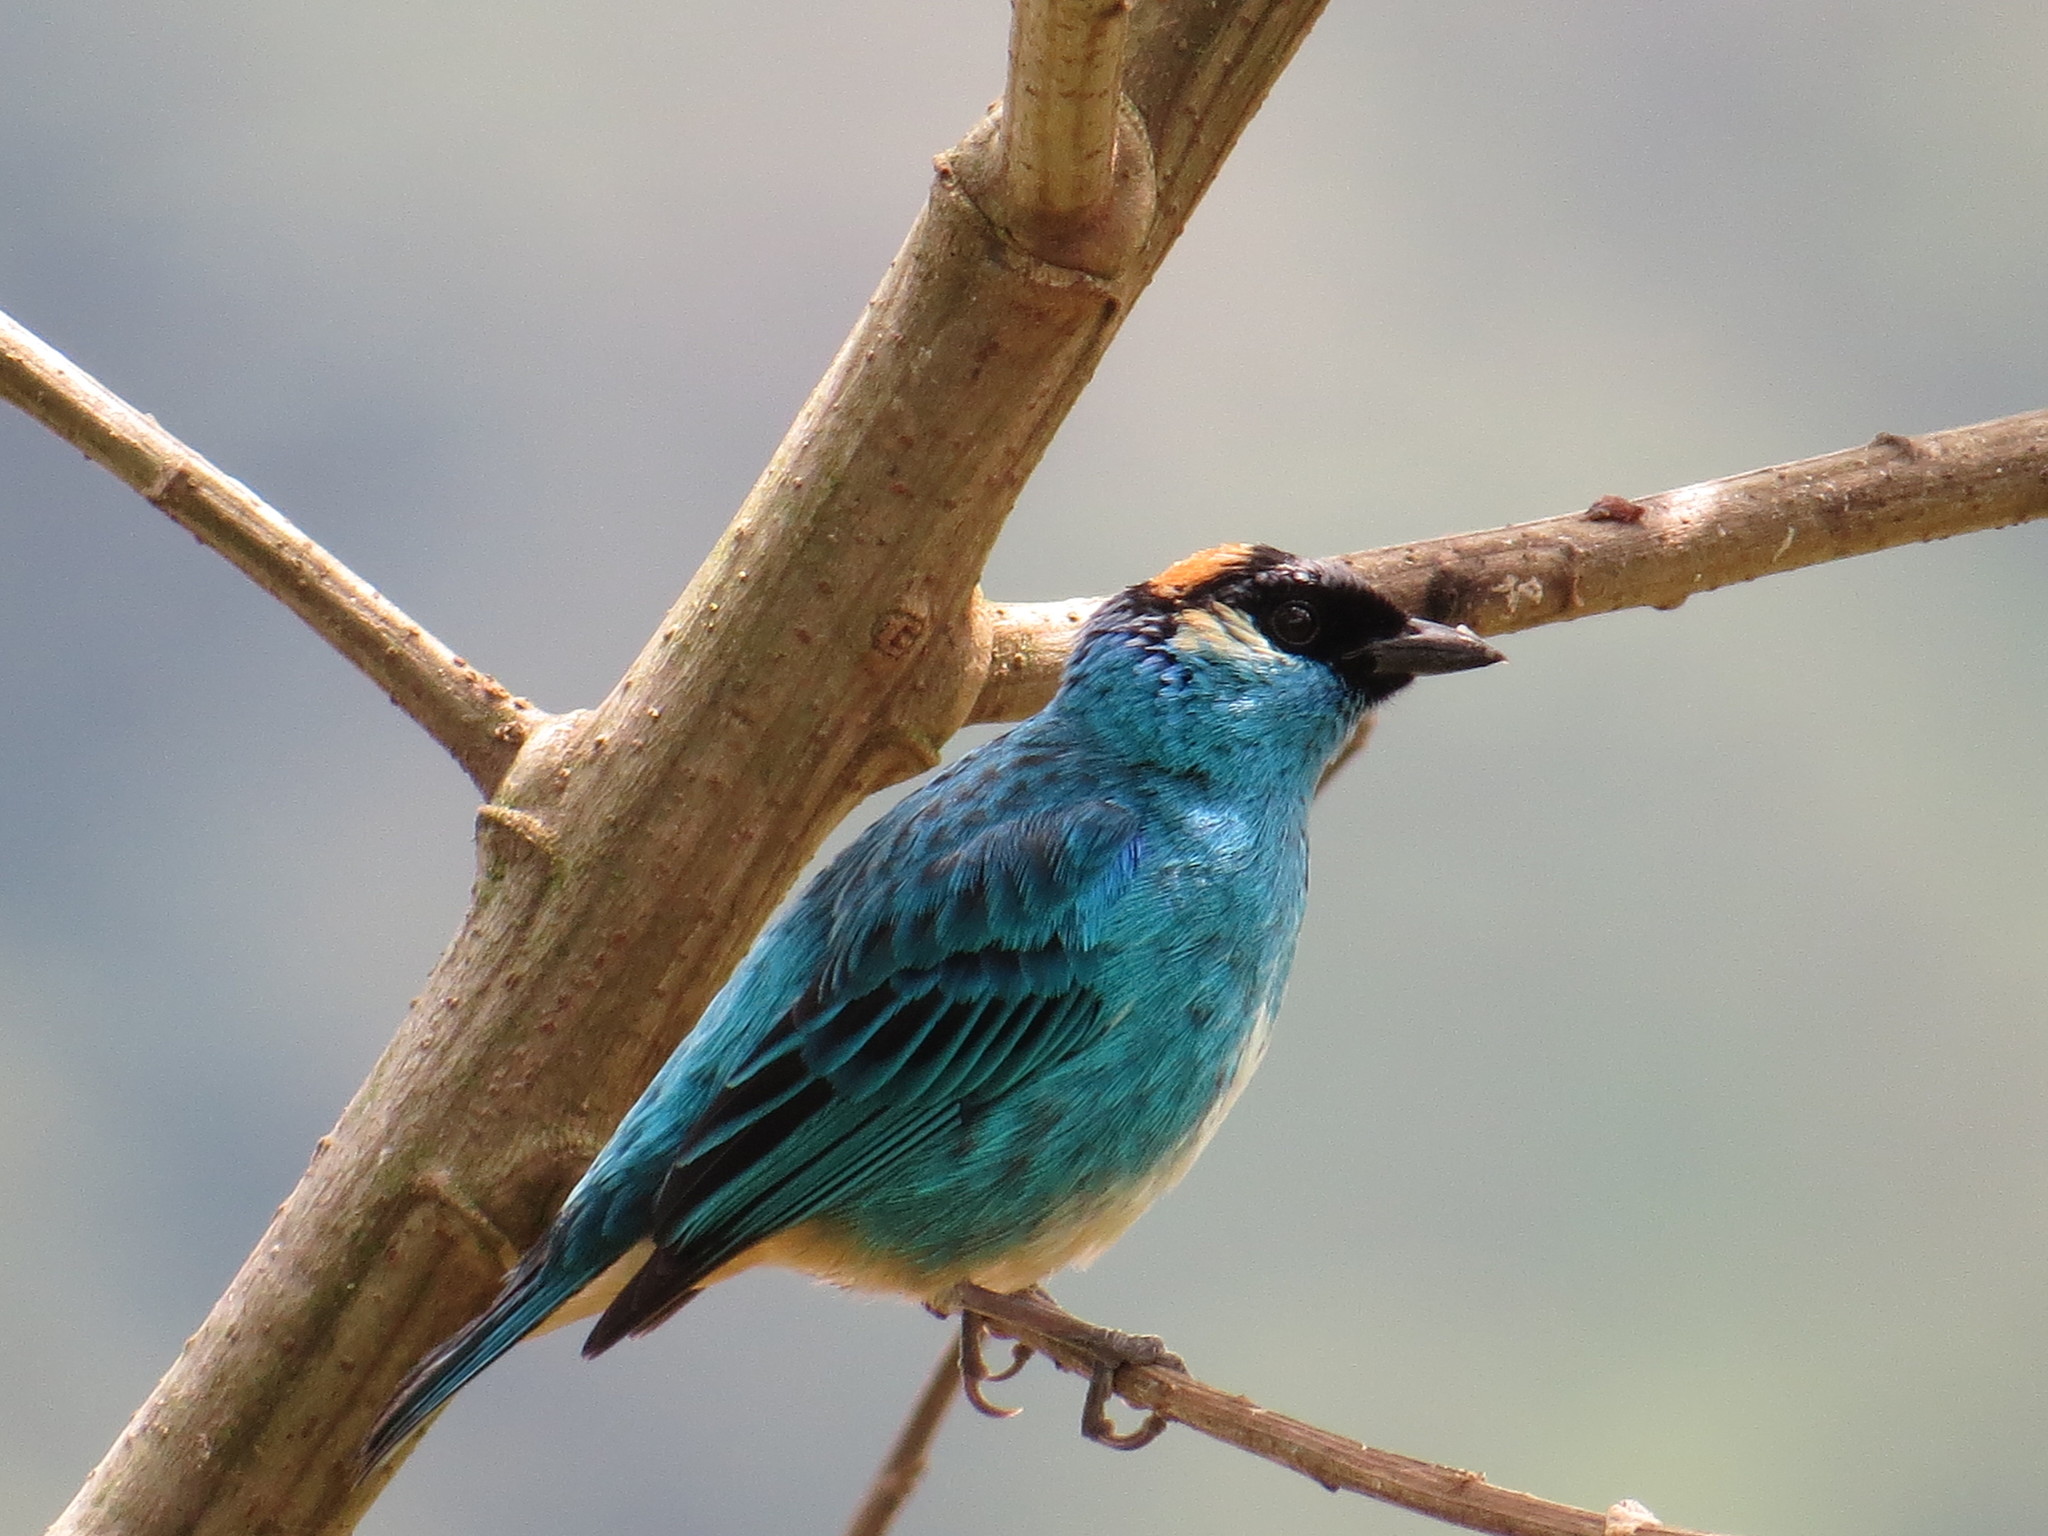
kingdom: Animalia
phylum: Chordata
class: Aves
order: Passeriformes
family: Thraupidae
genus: Chalcothraupis
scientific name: Chalcothraupis ruficervix
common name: Golden-naped tanager
